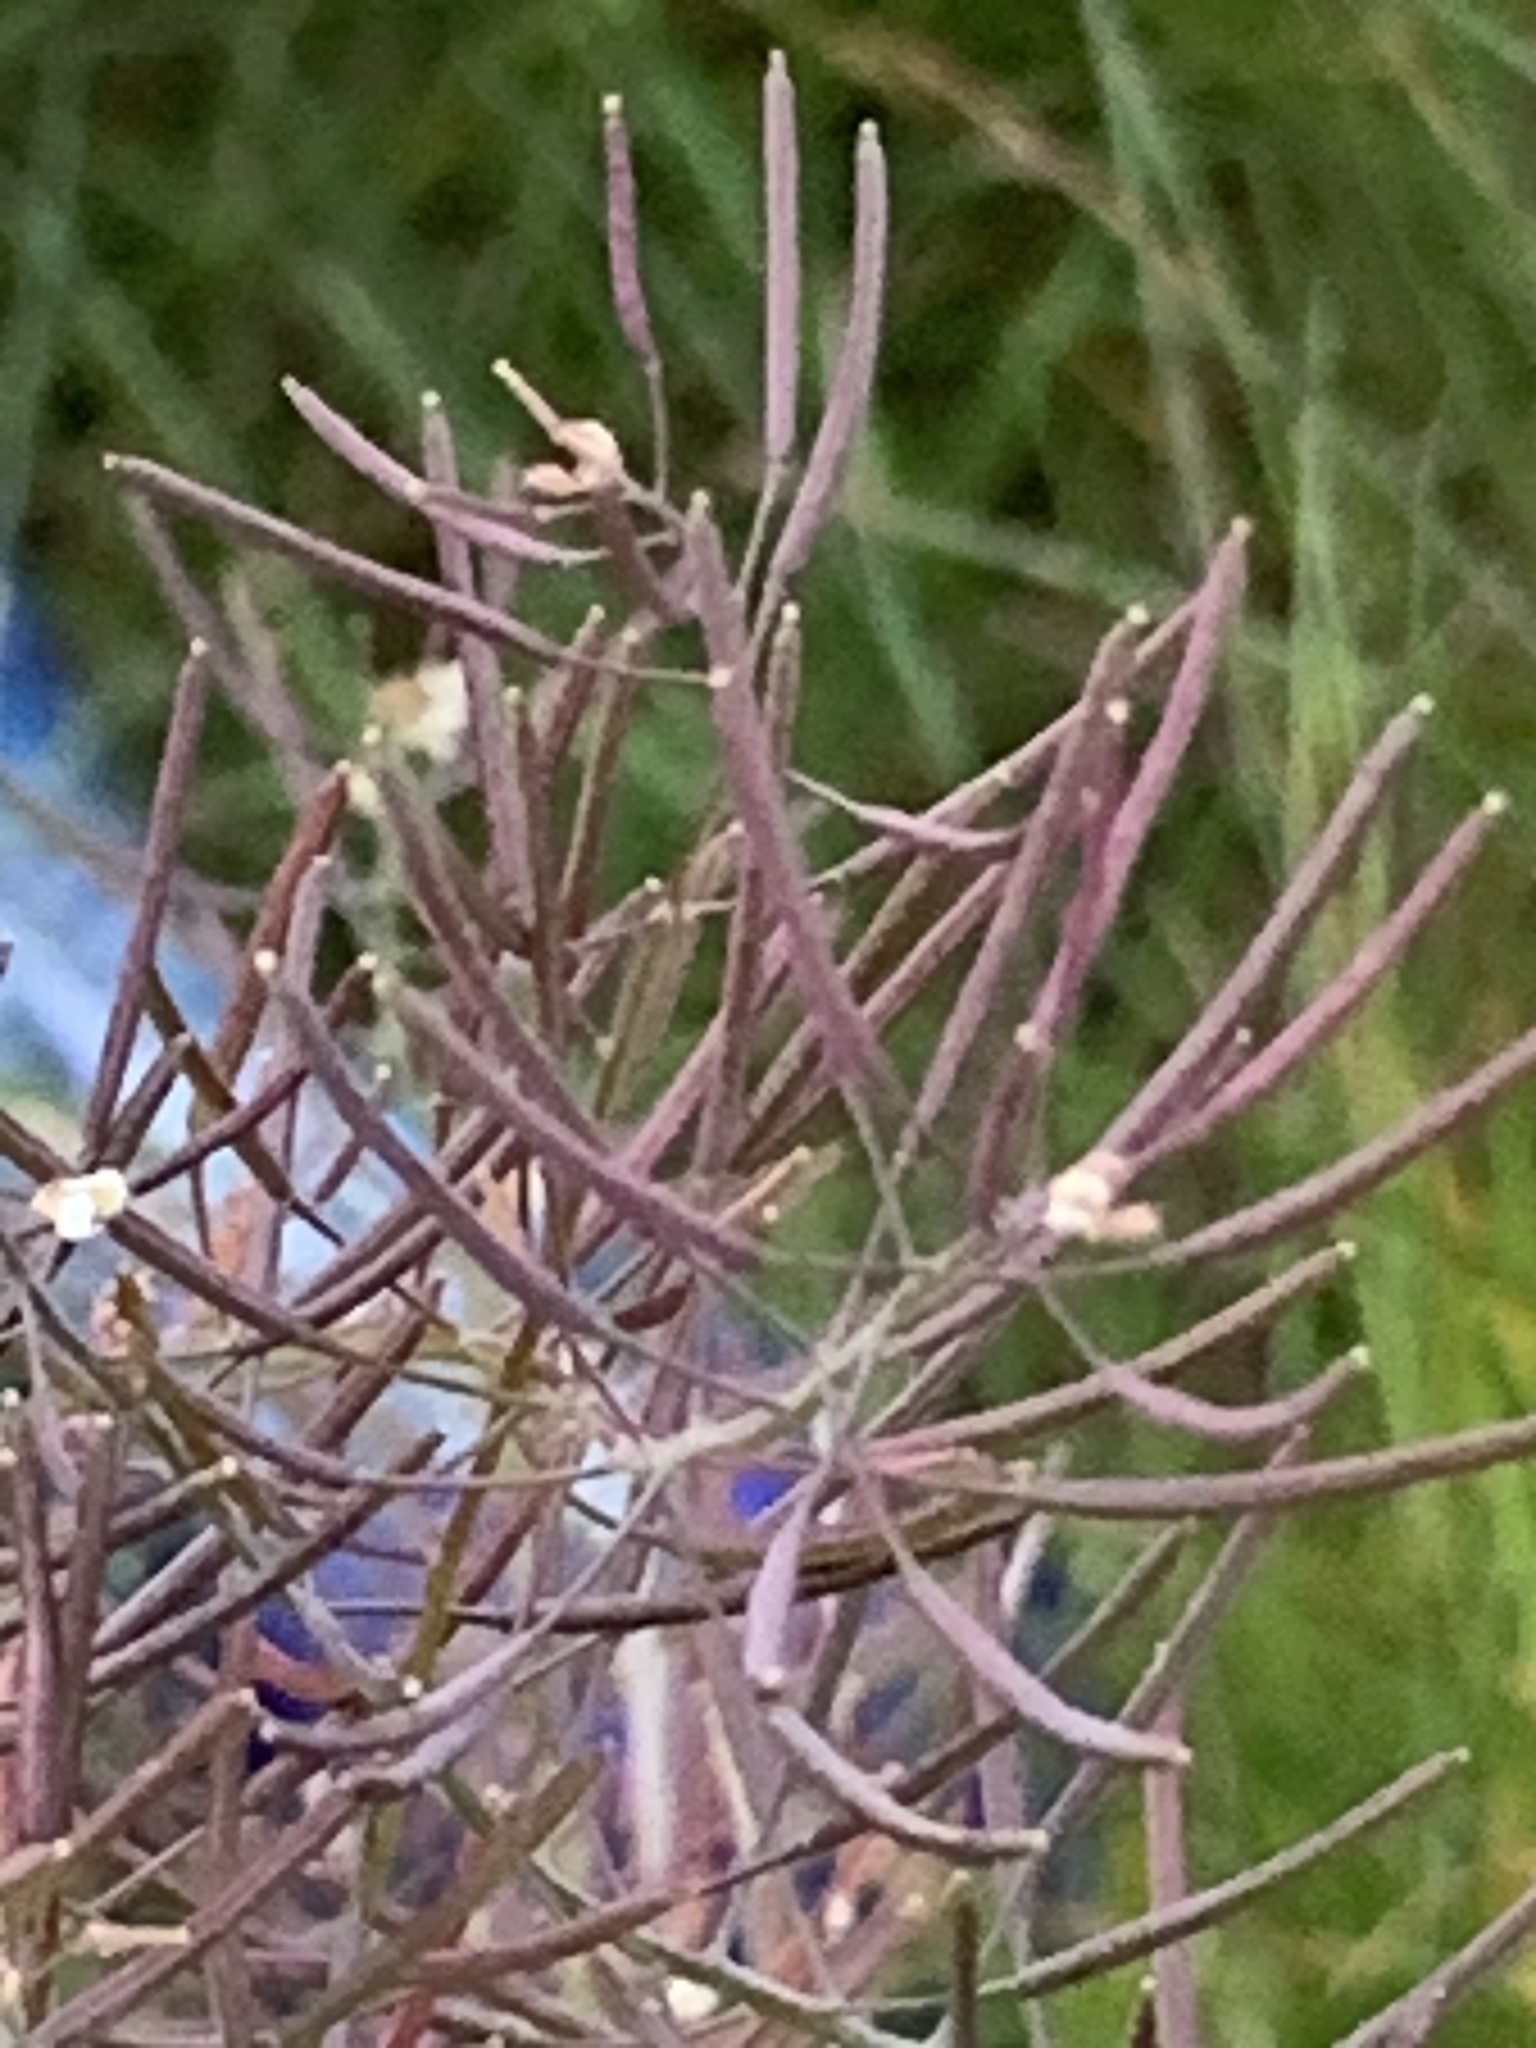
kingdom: Plantae
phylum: Tracheophyta
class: Magnoliopsida
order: Brassicales
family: Brassicaceae
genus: Arabidopsis
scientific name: Arabidopsis thaliana
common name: Thale cress
